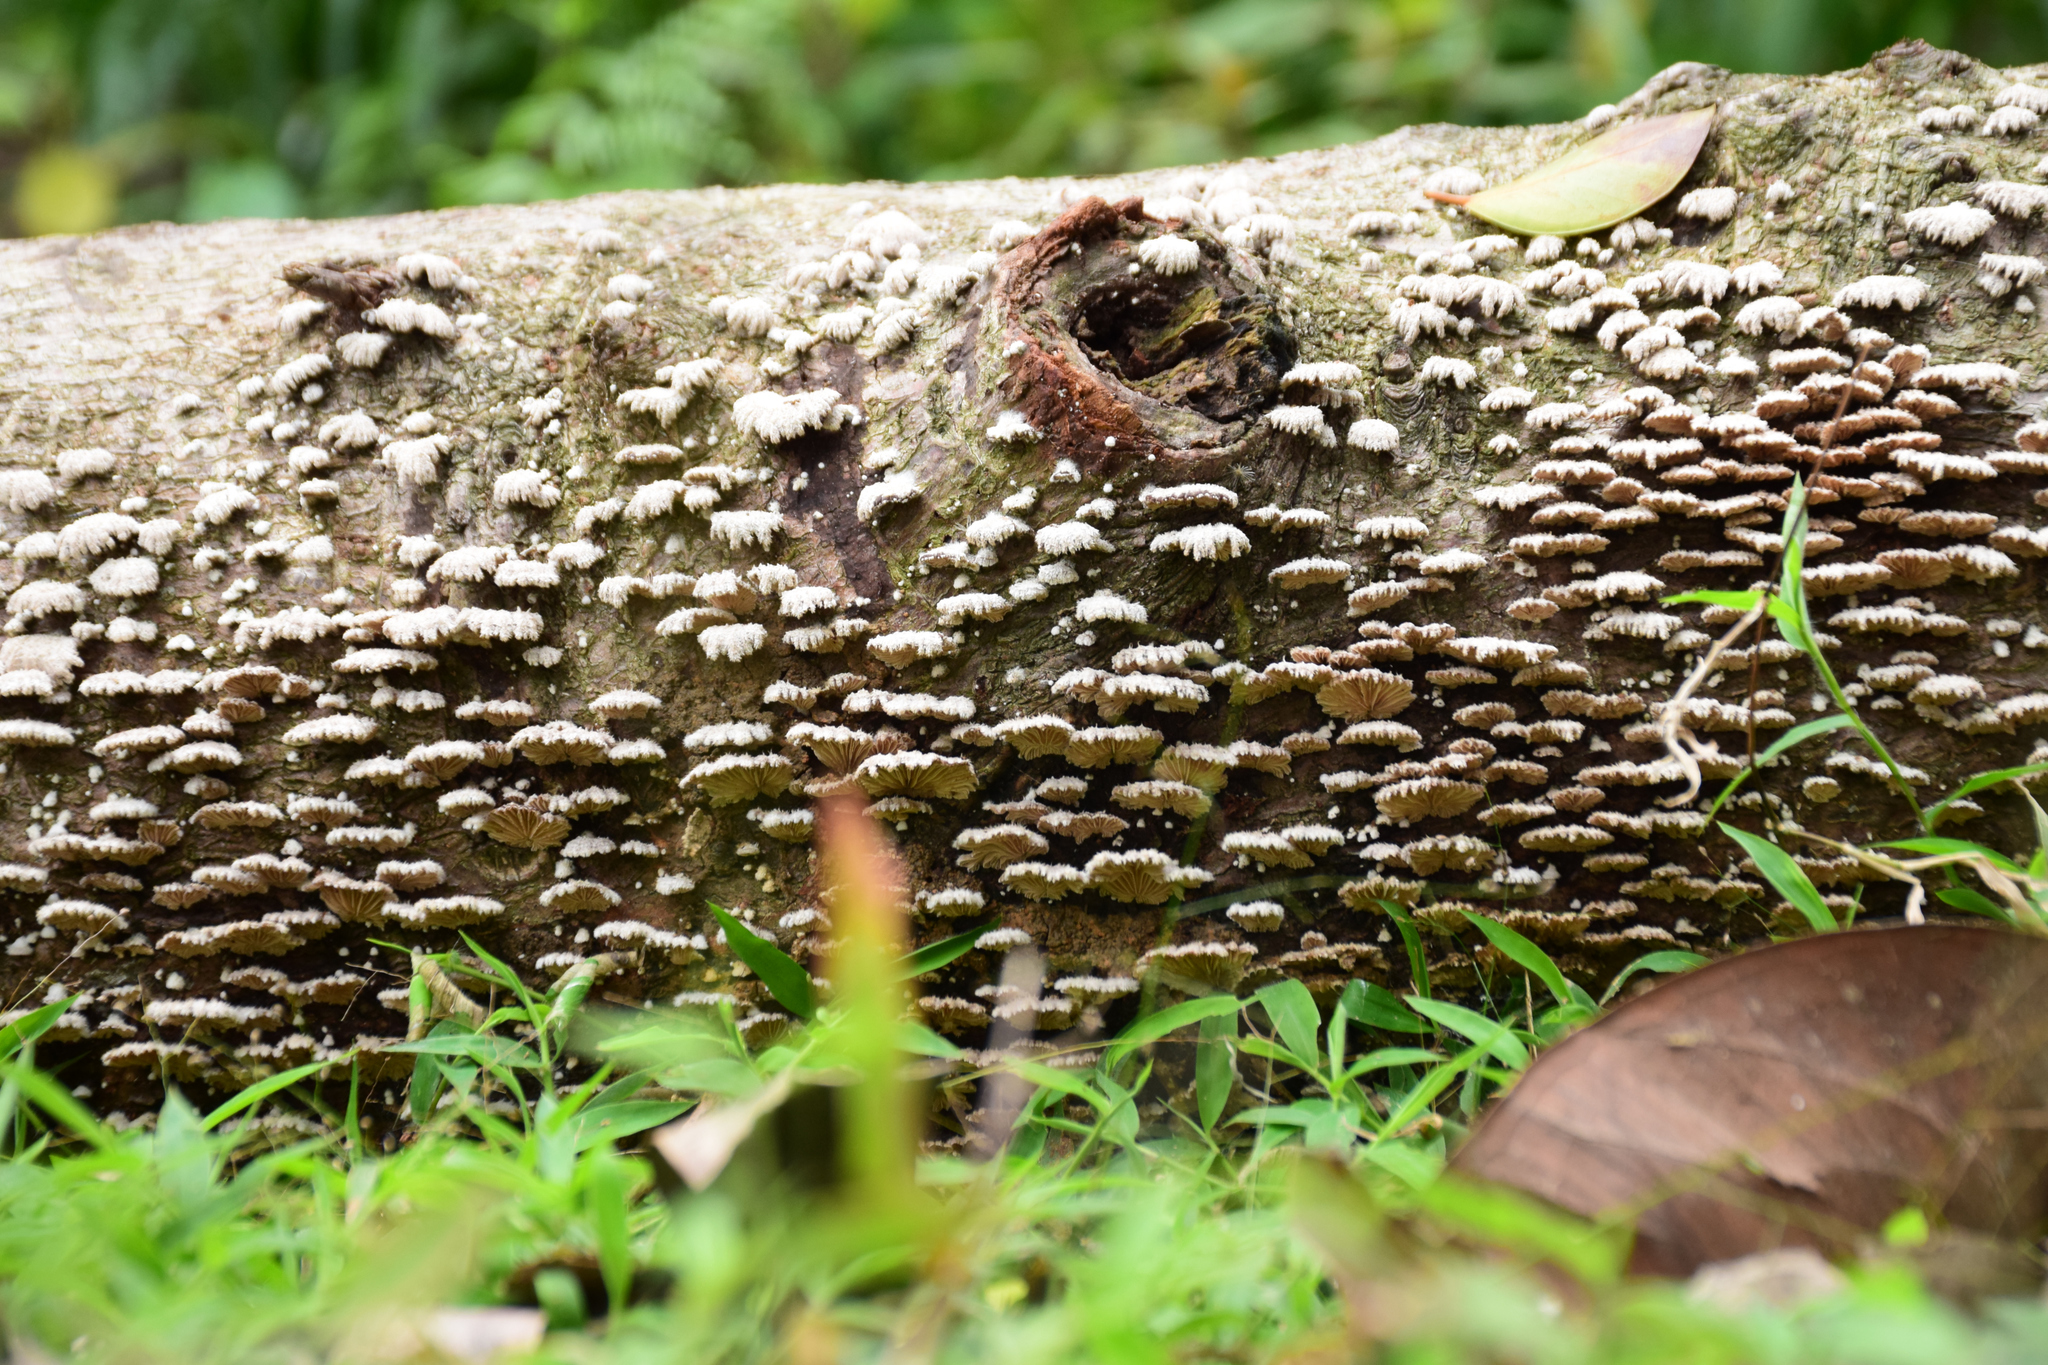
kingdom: Fungi
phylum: Basidiomycota
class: Agaricomycetes
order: Agaricales
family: Schizophyllaceae
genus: Schizophyllum
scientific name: Schizophyllum commune
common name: Common porecrust
